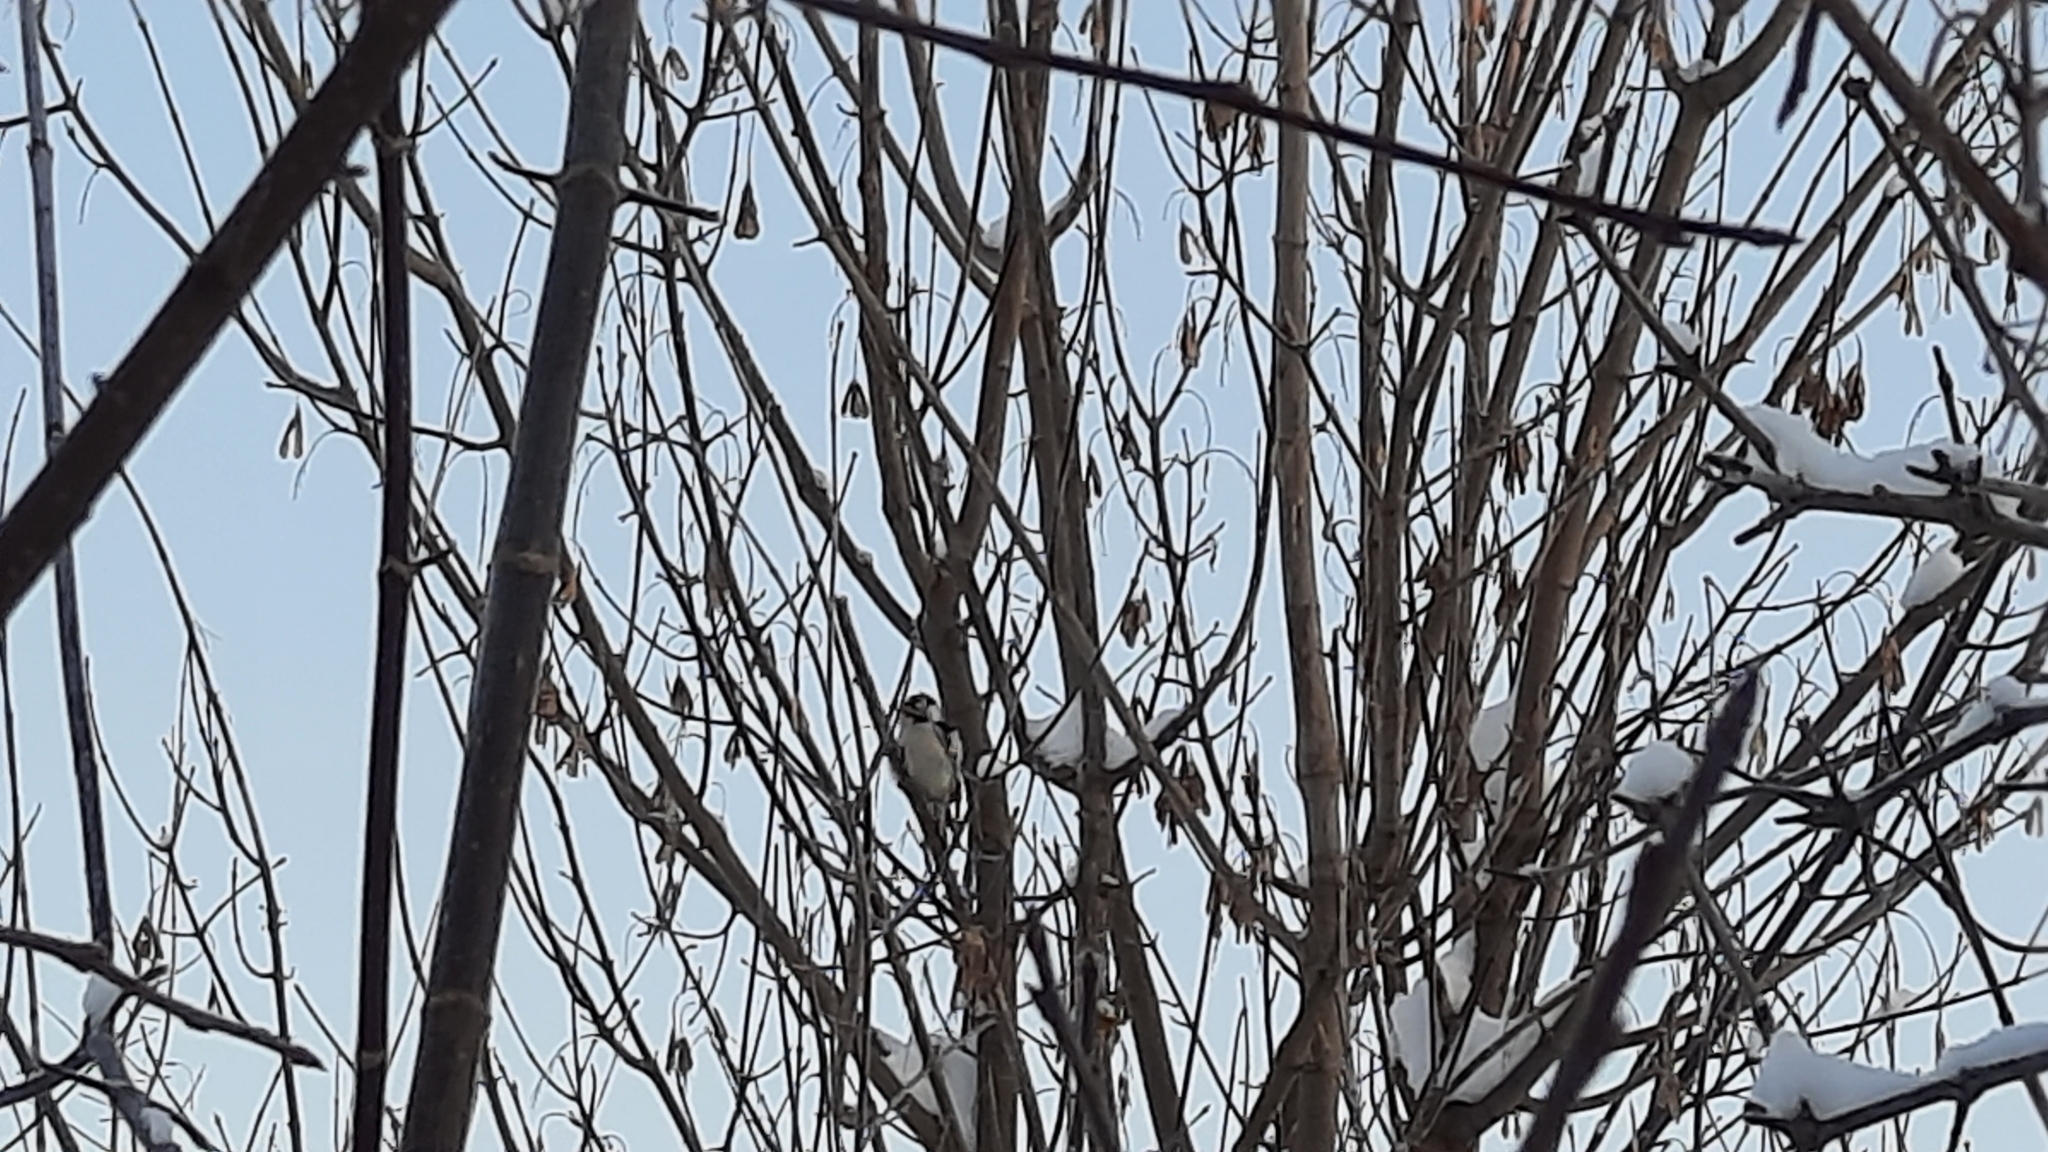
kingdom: Animalia
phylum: Chordata
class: Aves
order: Piciformes
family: Picidae
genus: Dryobates
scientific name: Dryobates minor
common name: Lesser spotted woodpecker
